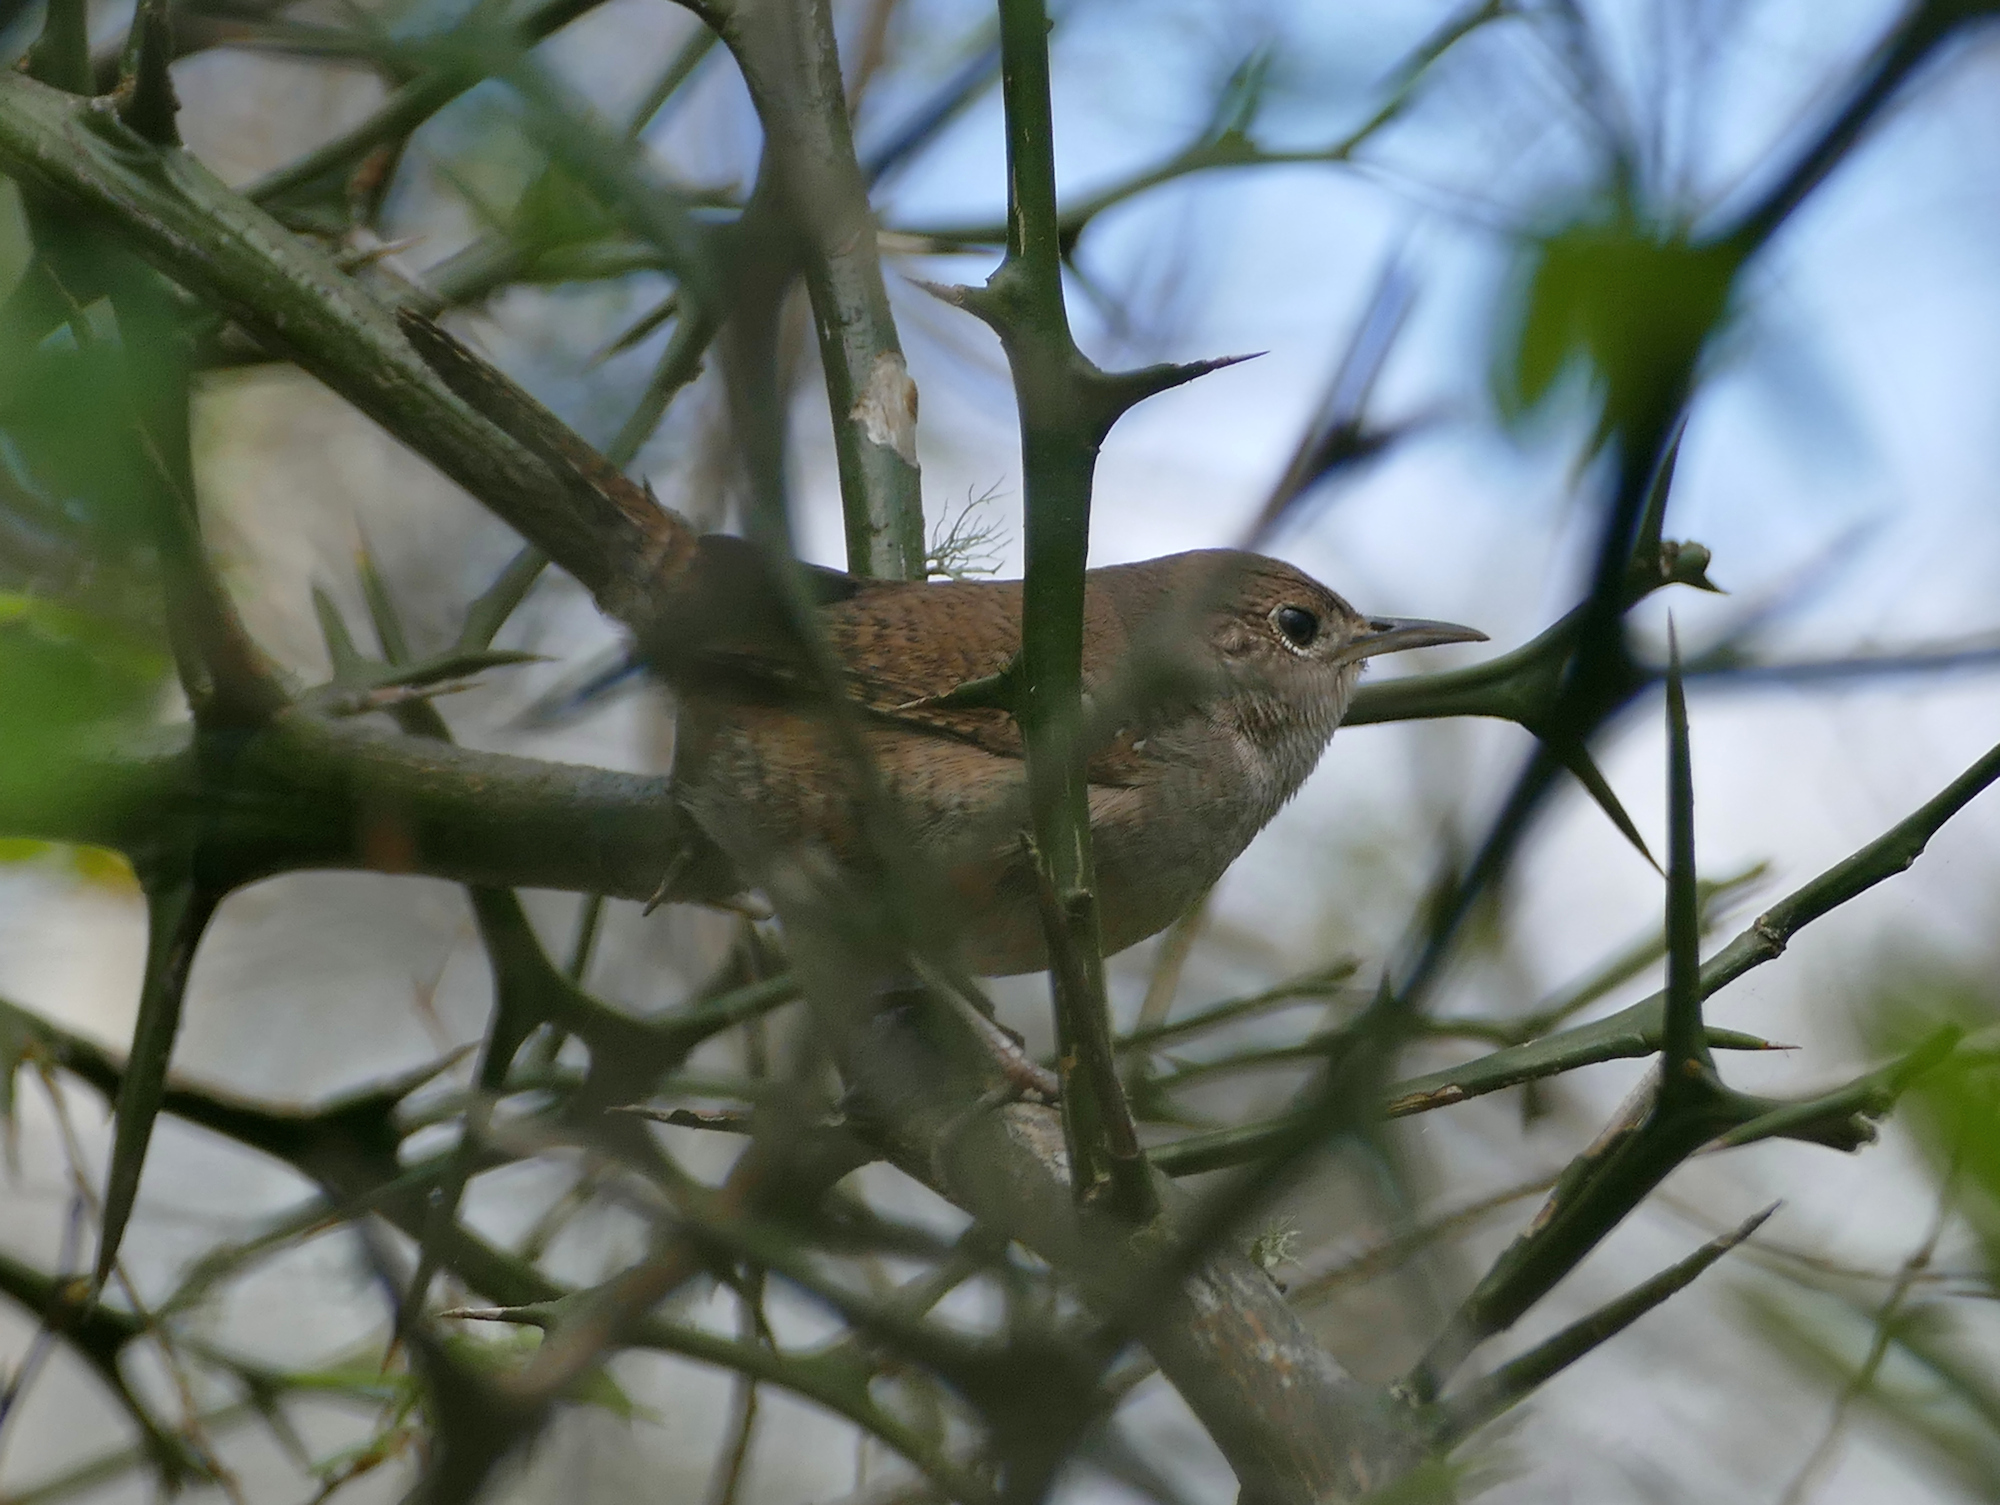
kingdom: Animalia
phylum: Chordata
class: Aves
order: Passeriformes
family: Troglodytidae
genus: Troglodytes
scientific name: Troglodytes aedon
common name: House wren
